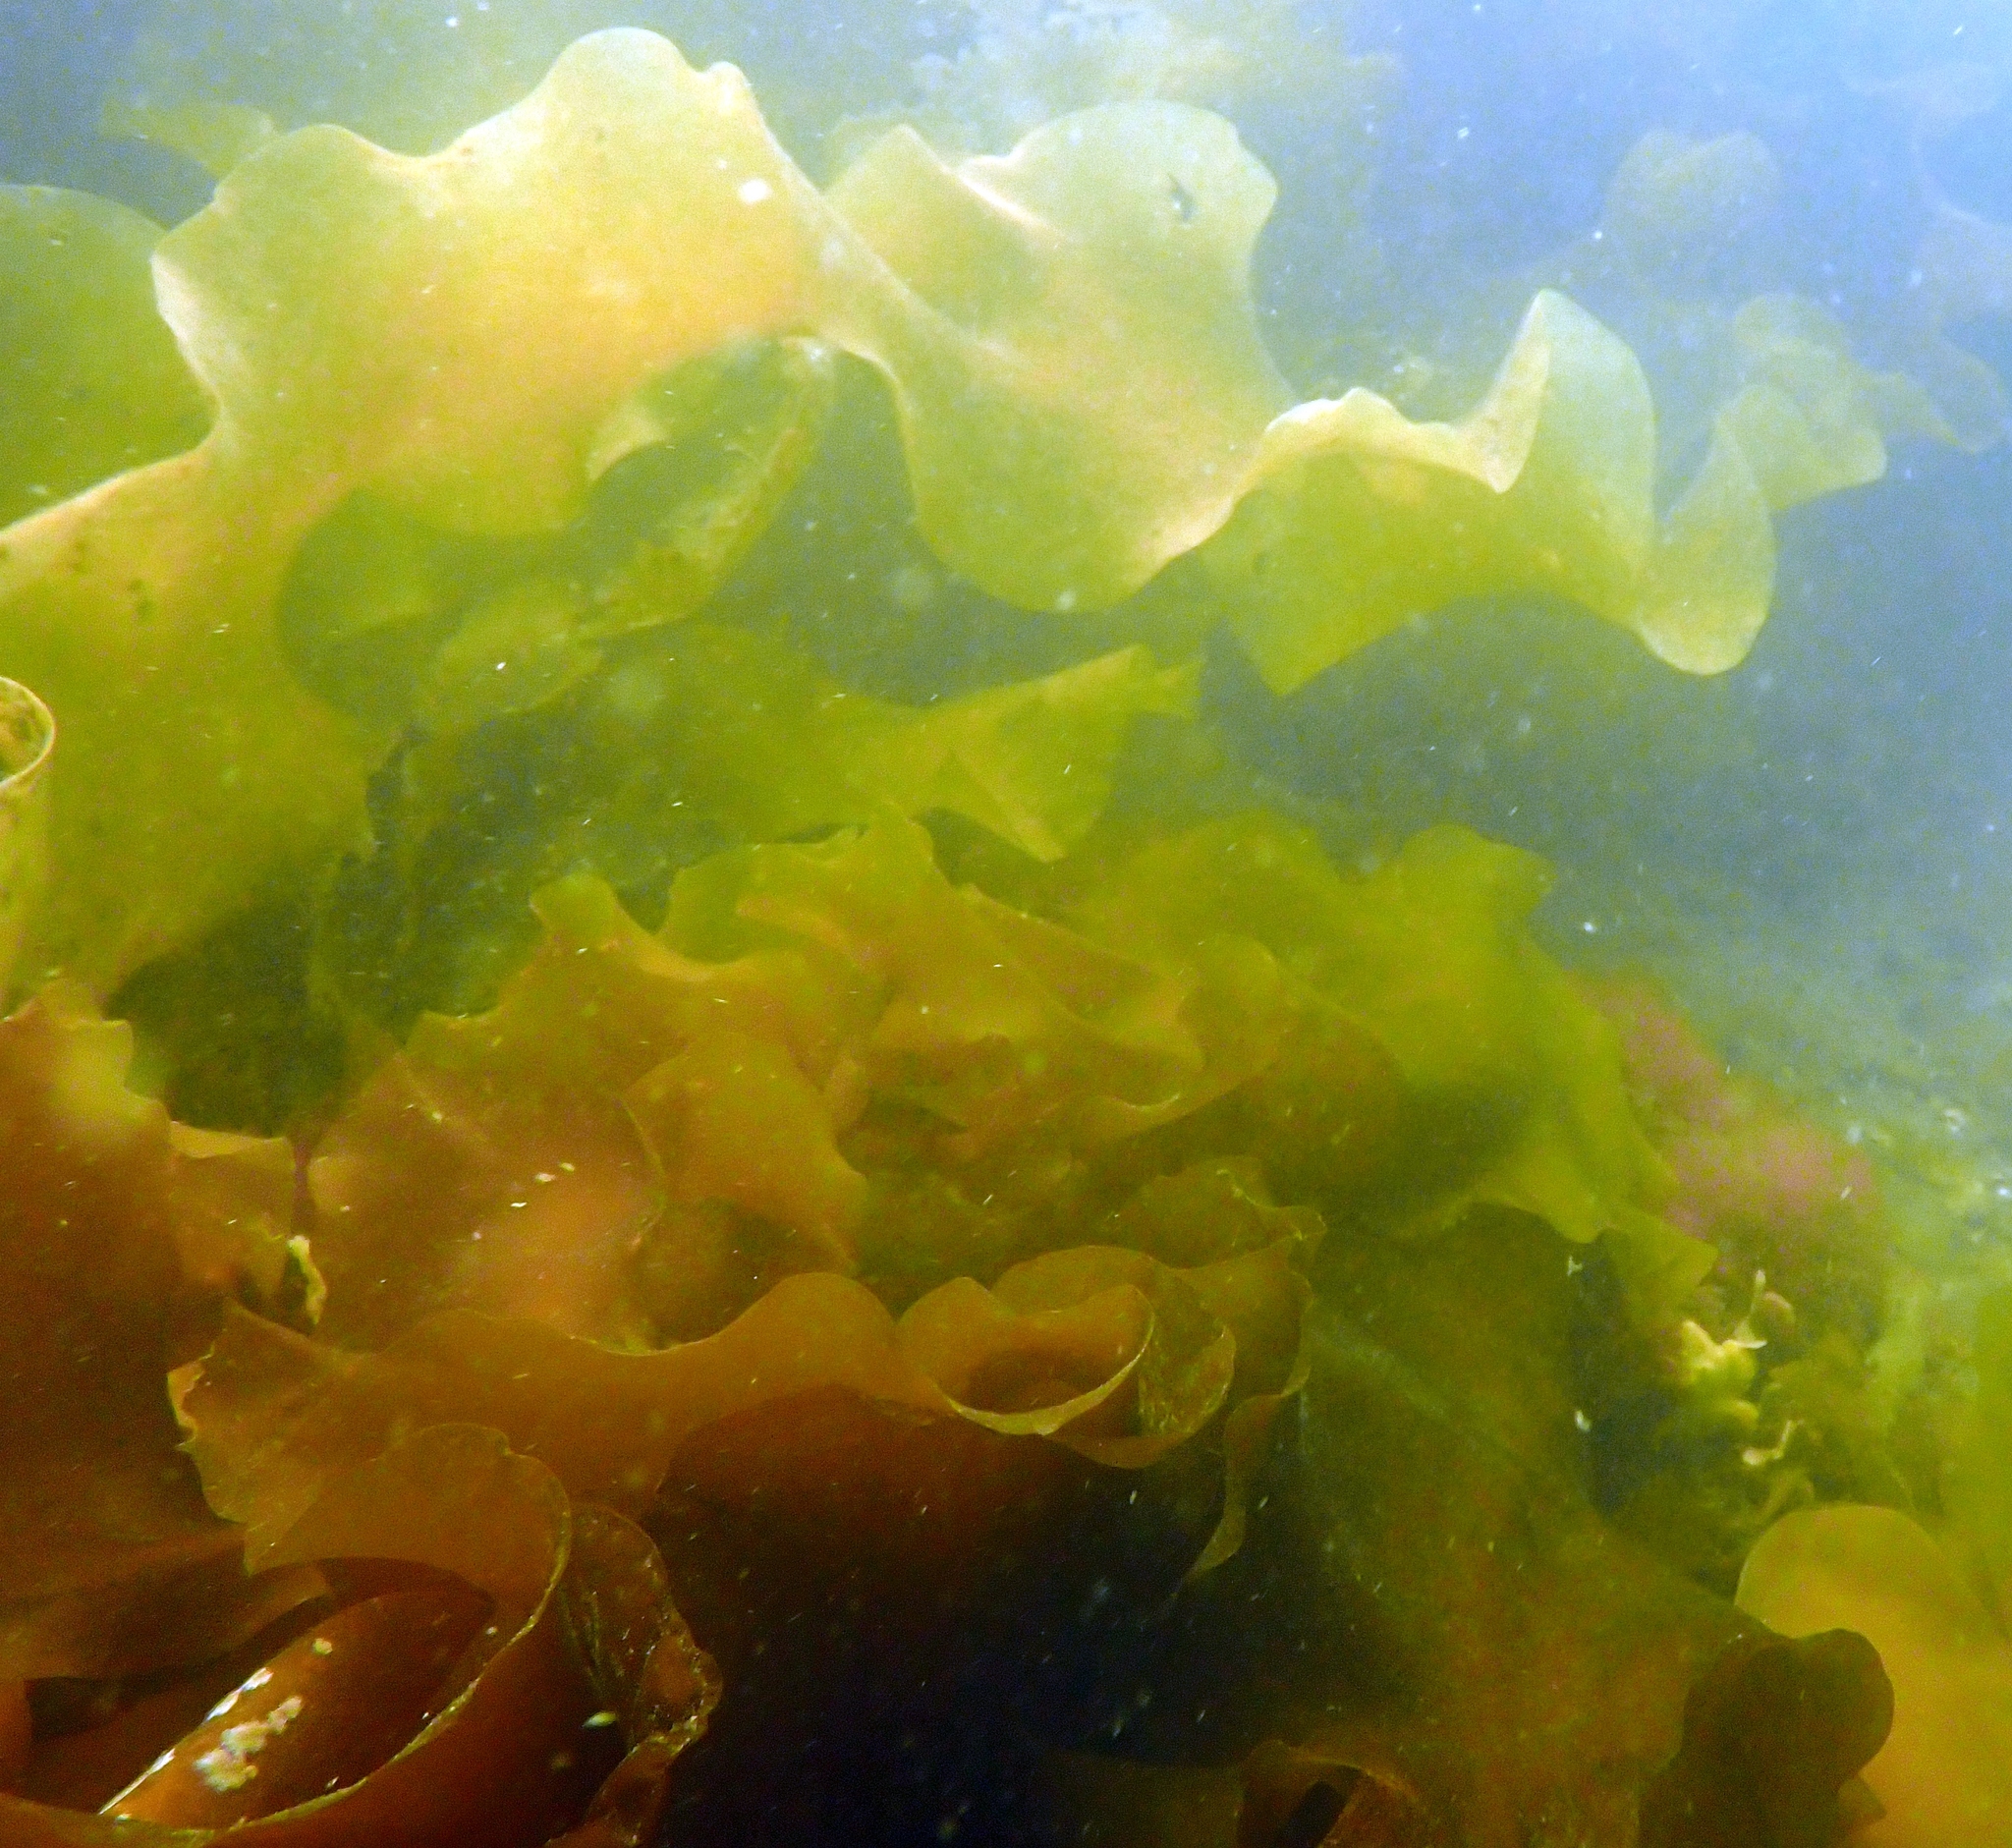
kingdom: Chromista
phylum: Ochrophyta
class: Phaeophyceae
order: Laminariales
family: Laminariaceae
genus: Saccharina
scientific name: Saccharina latissima
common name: Poor man's weather glass
